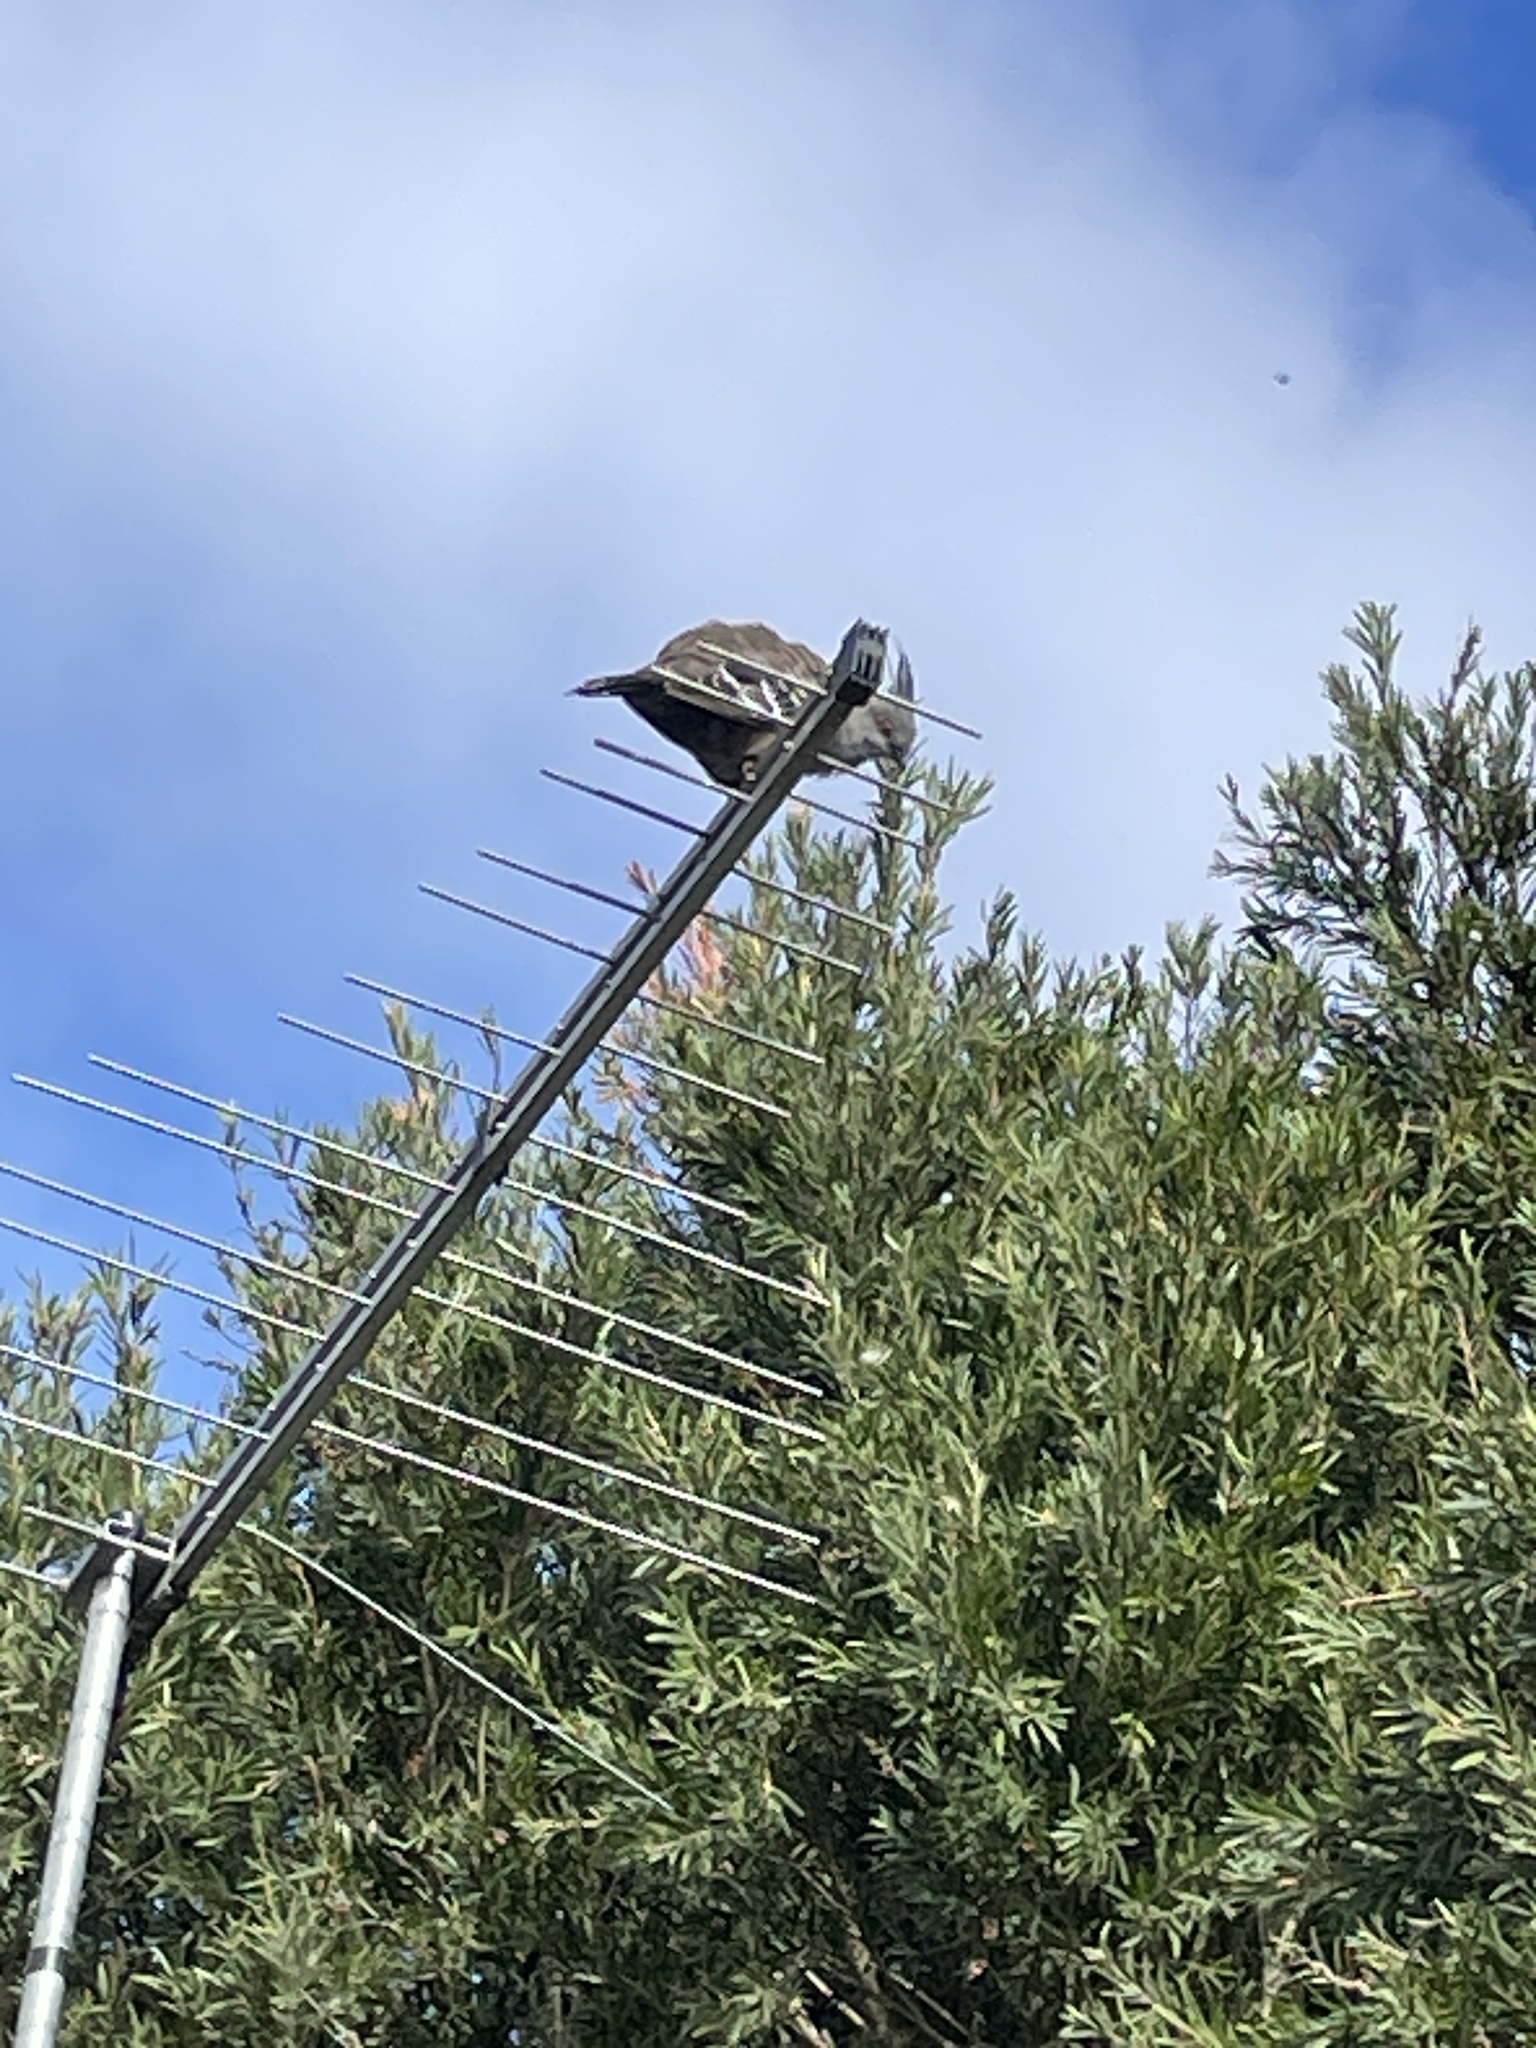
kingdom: Animalia
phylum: Chordata
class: Aves
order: Columbiformes
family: Columbidae
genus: Ocyphaps
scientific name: Ocyphaps lophotes
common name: Crested pigeon
